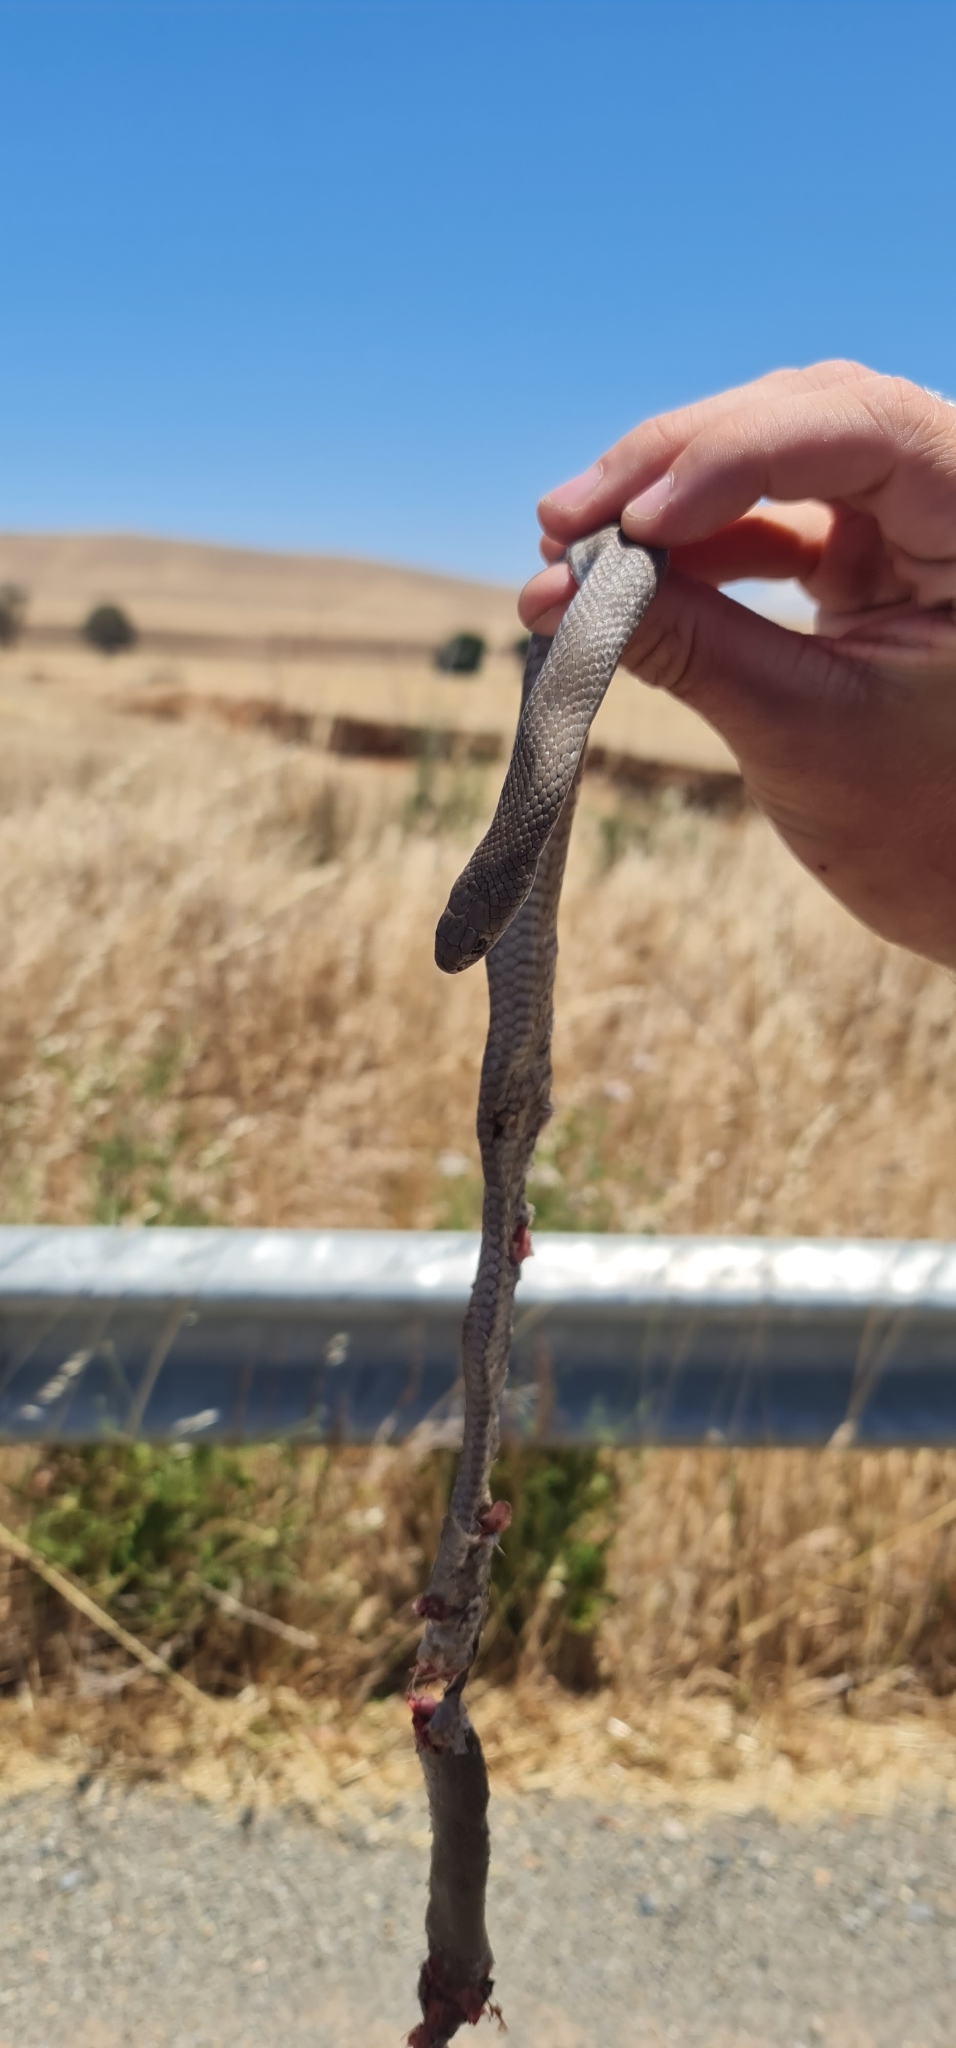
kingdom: Animalia
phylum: Chordata
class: Squamata
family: Elapidae
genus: Pseudonaja
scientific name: Pseudonaja textilis
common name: Eastern brown snake
